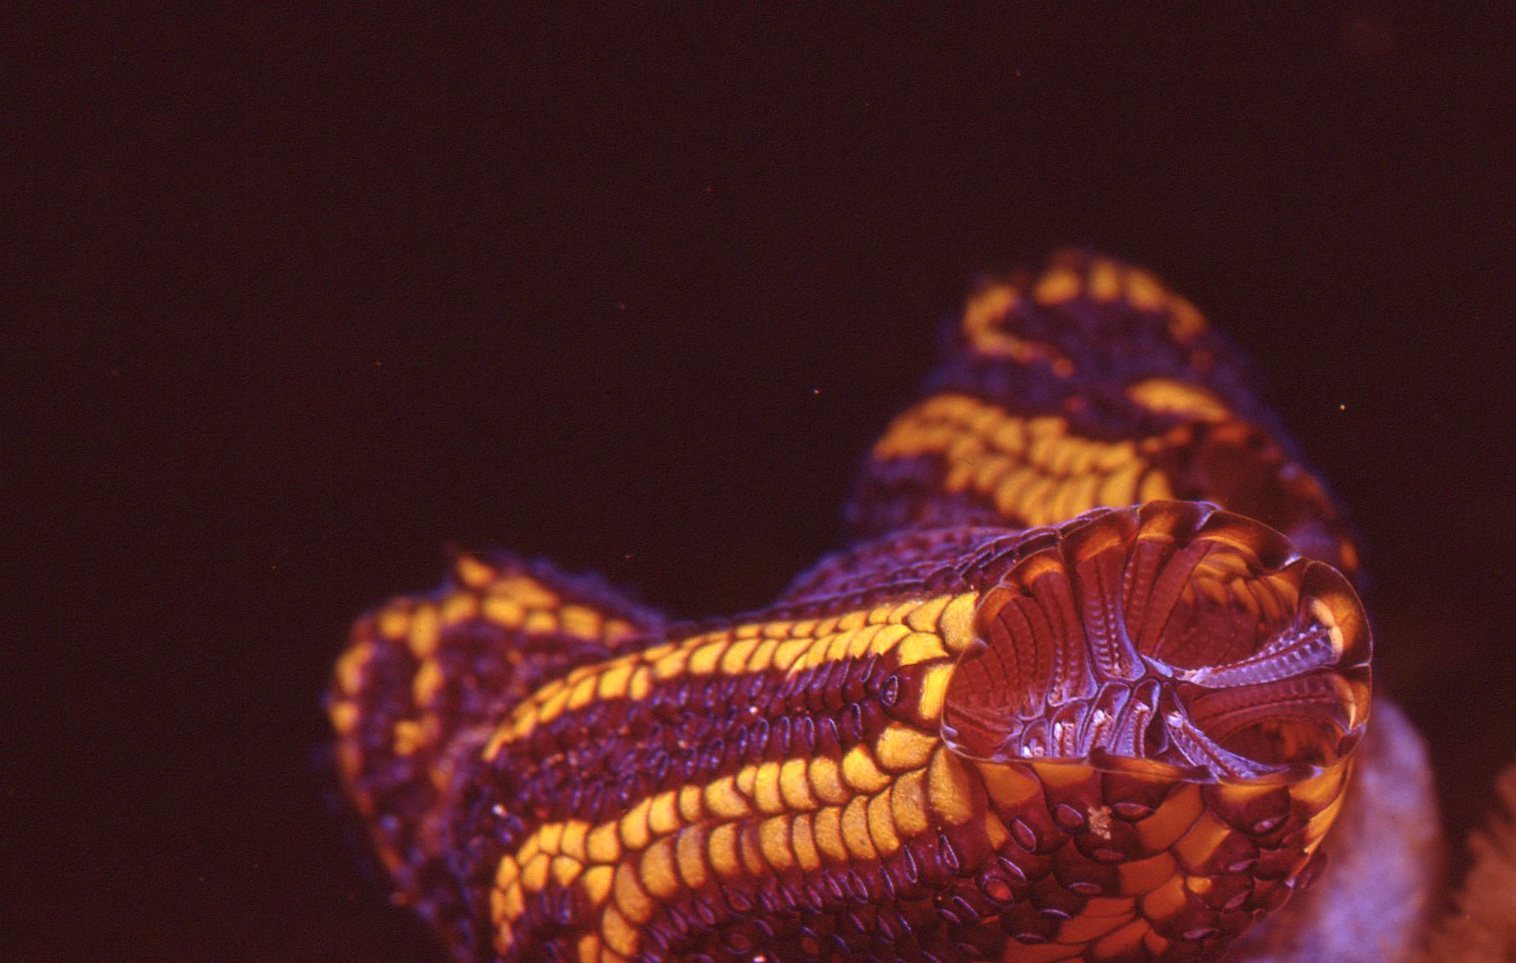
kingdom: Animalia
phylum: Chordata
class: Ascidiacea
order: Stolidobranchia
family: Styelidae
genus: Botrylloides
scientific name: Botrylloides magnicoecus
